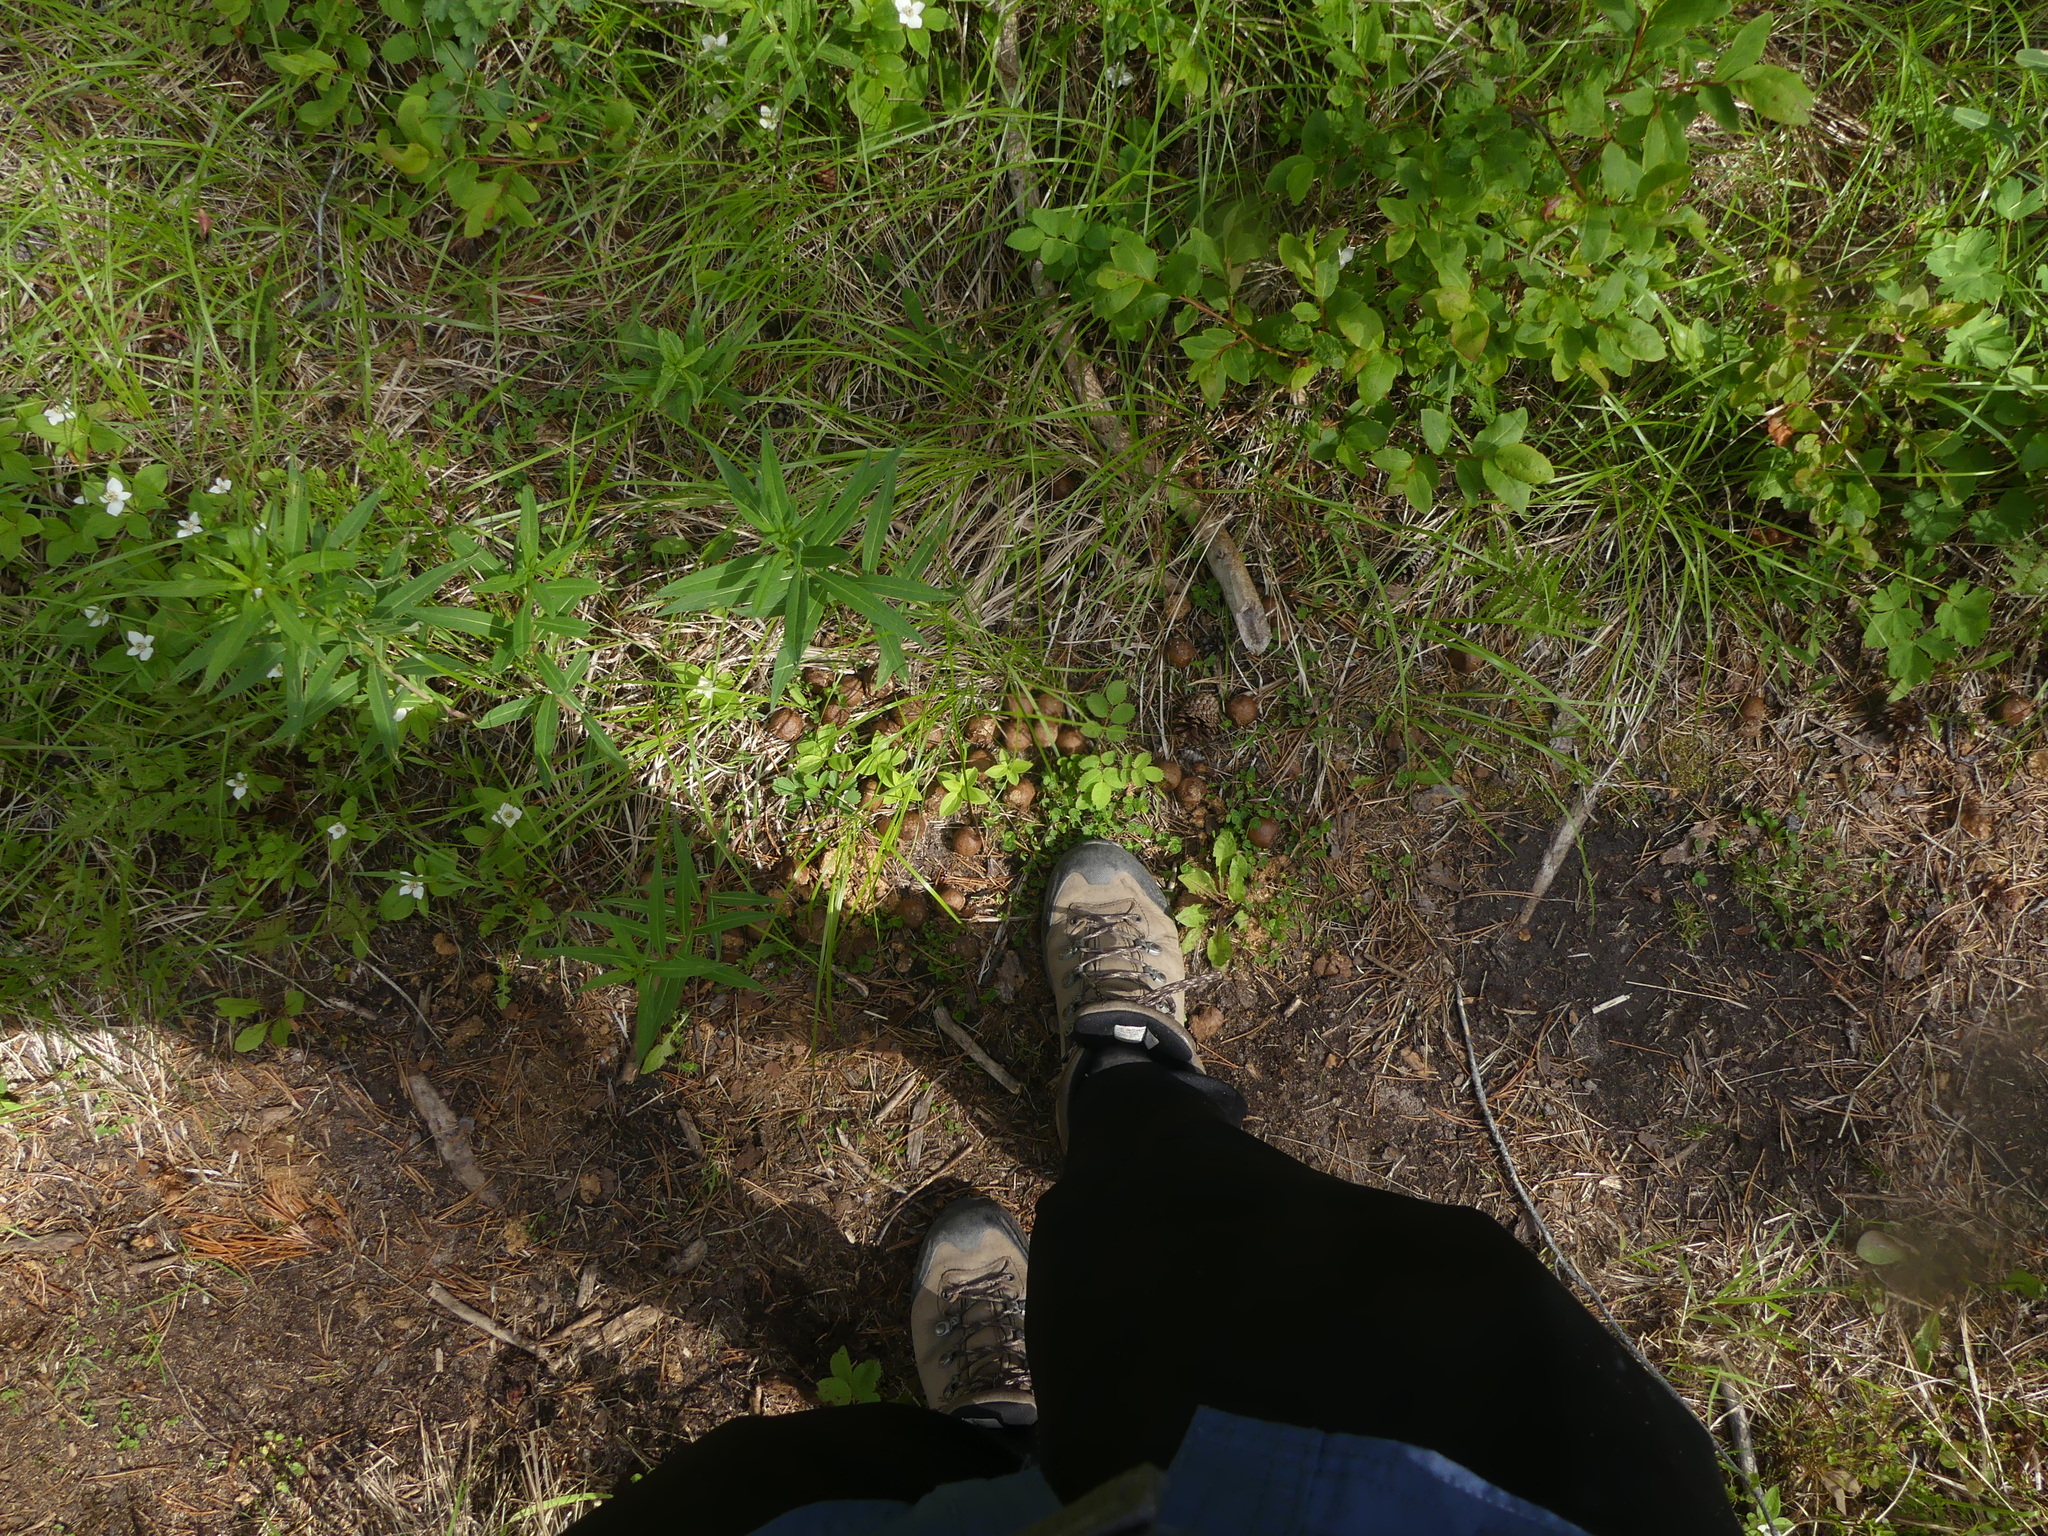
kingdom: Animalia
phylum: Chordata
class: Mammalia
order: Artiodactyla
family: Cervidae
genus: Alces
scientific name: Alces alces
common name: Moose
